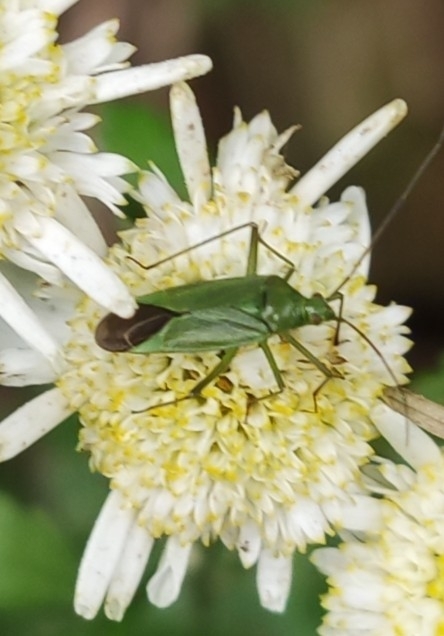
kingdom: Animalia
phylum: Arthropoda
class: Insecta
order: Hemiptera
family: Miridae
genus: Calocoris
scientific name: Calocoris affinis
